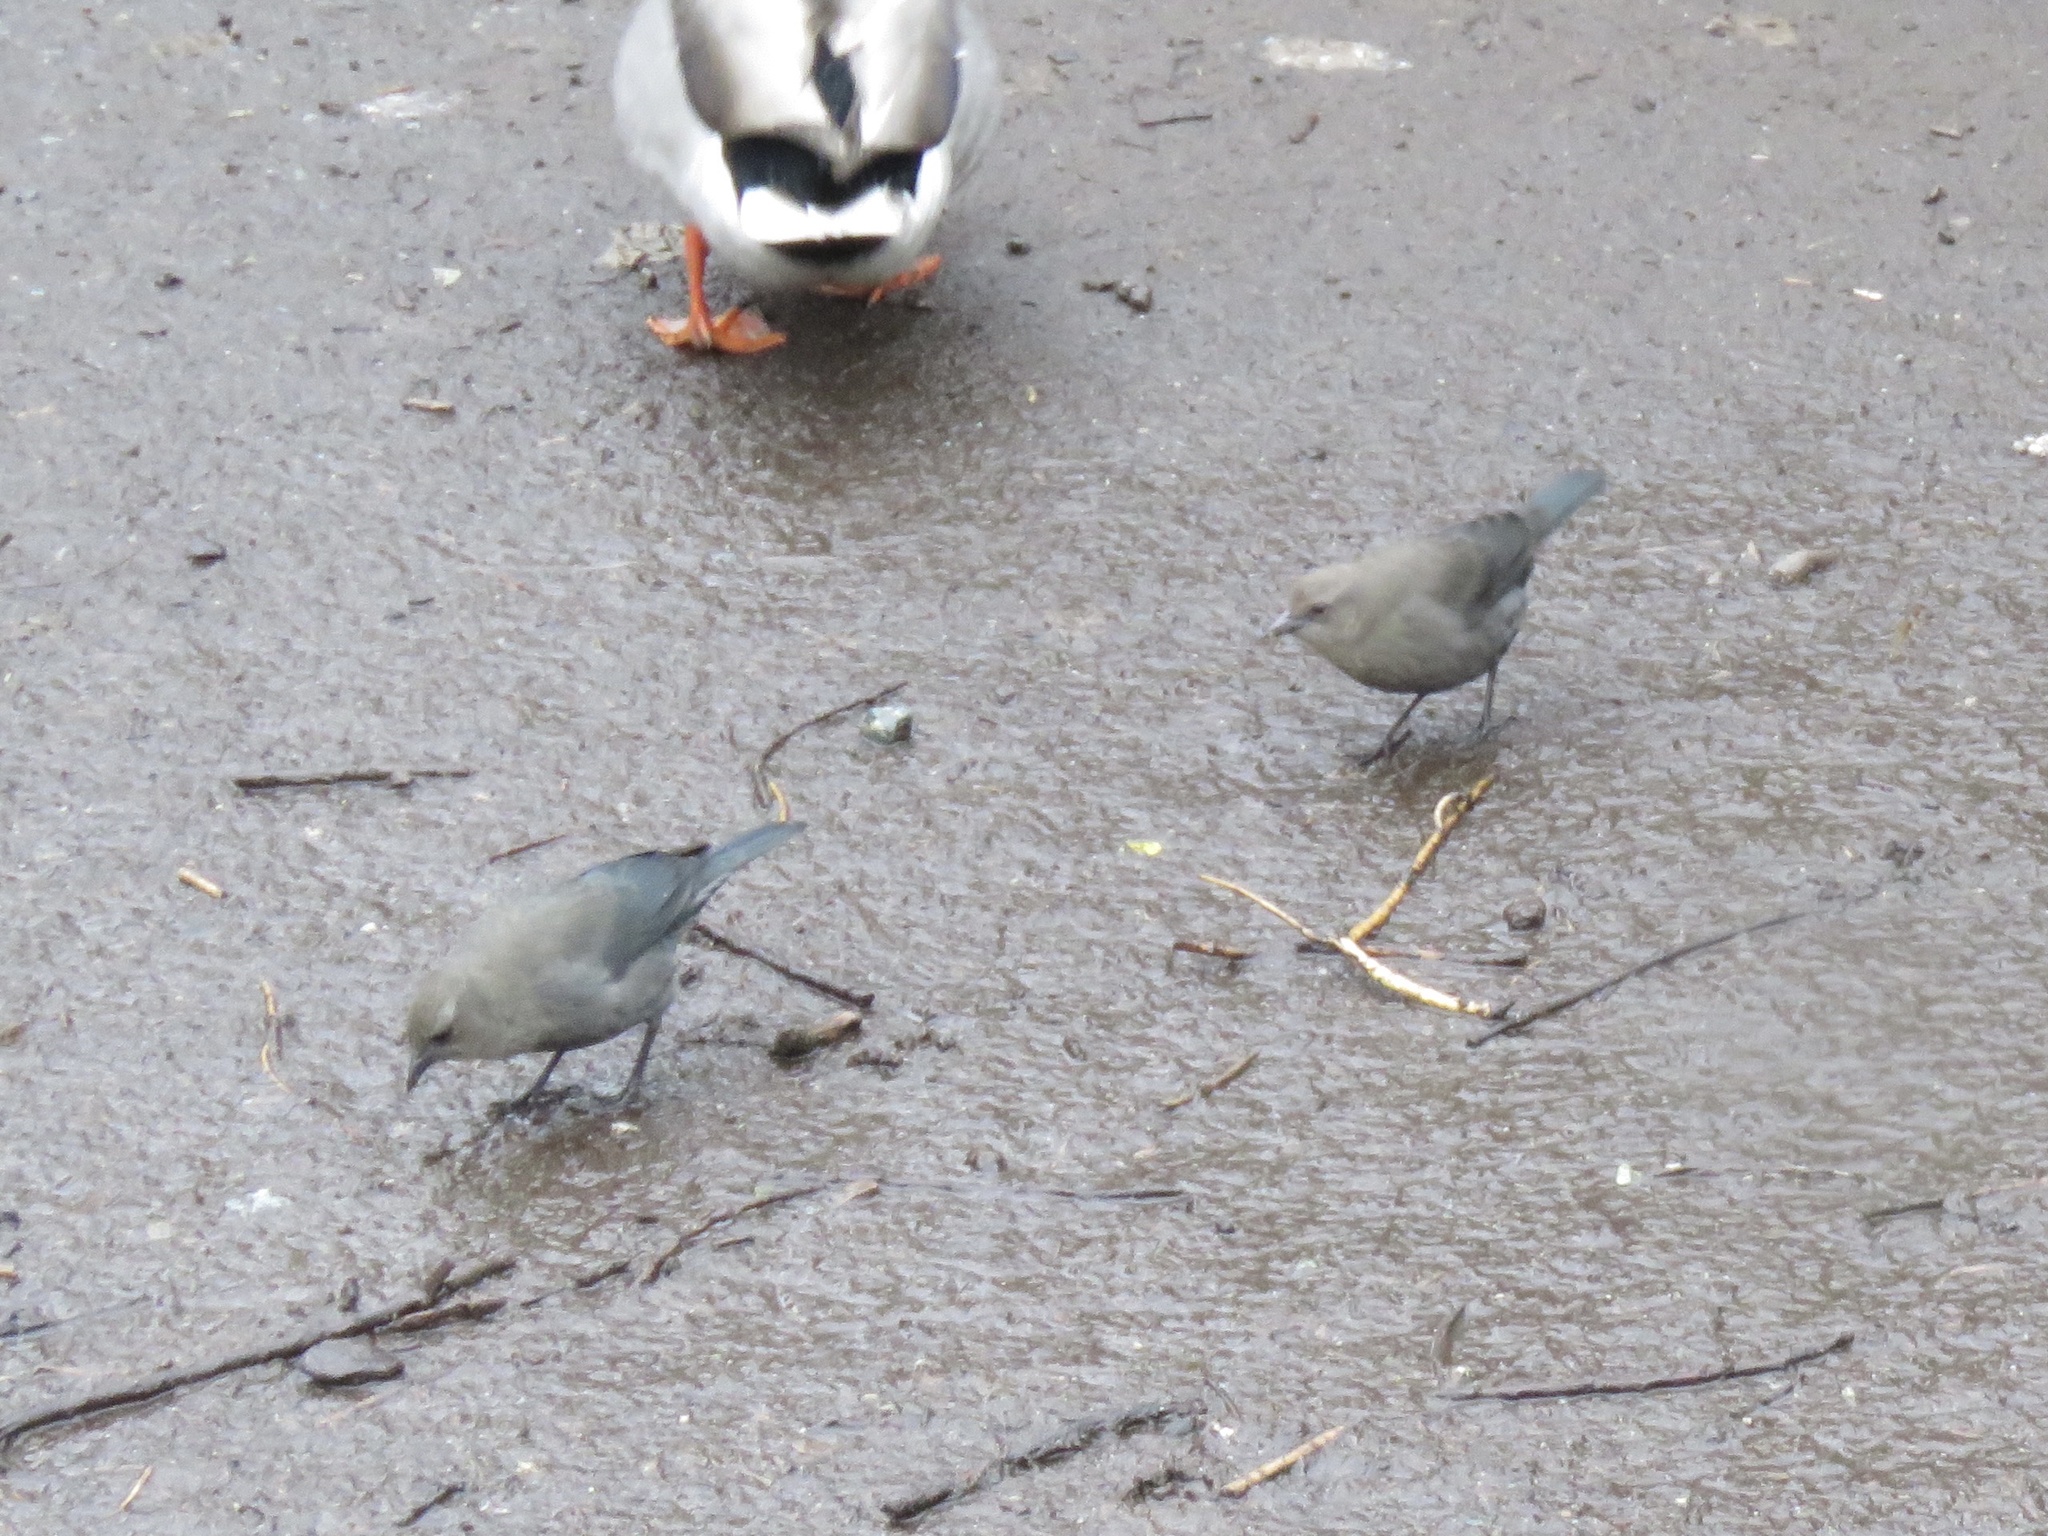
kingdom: Animalia
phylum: Chordata
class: Aves
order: Passeriformes
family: Icteridae
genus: Euphagus
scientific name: Euphagus cyanocephalus
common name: Brewer's blackbird
